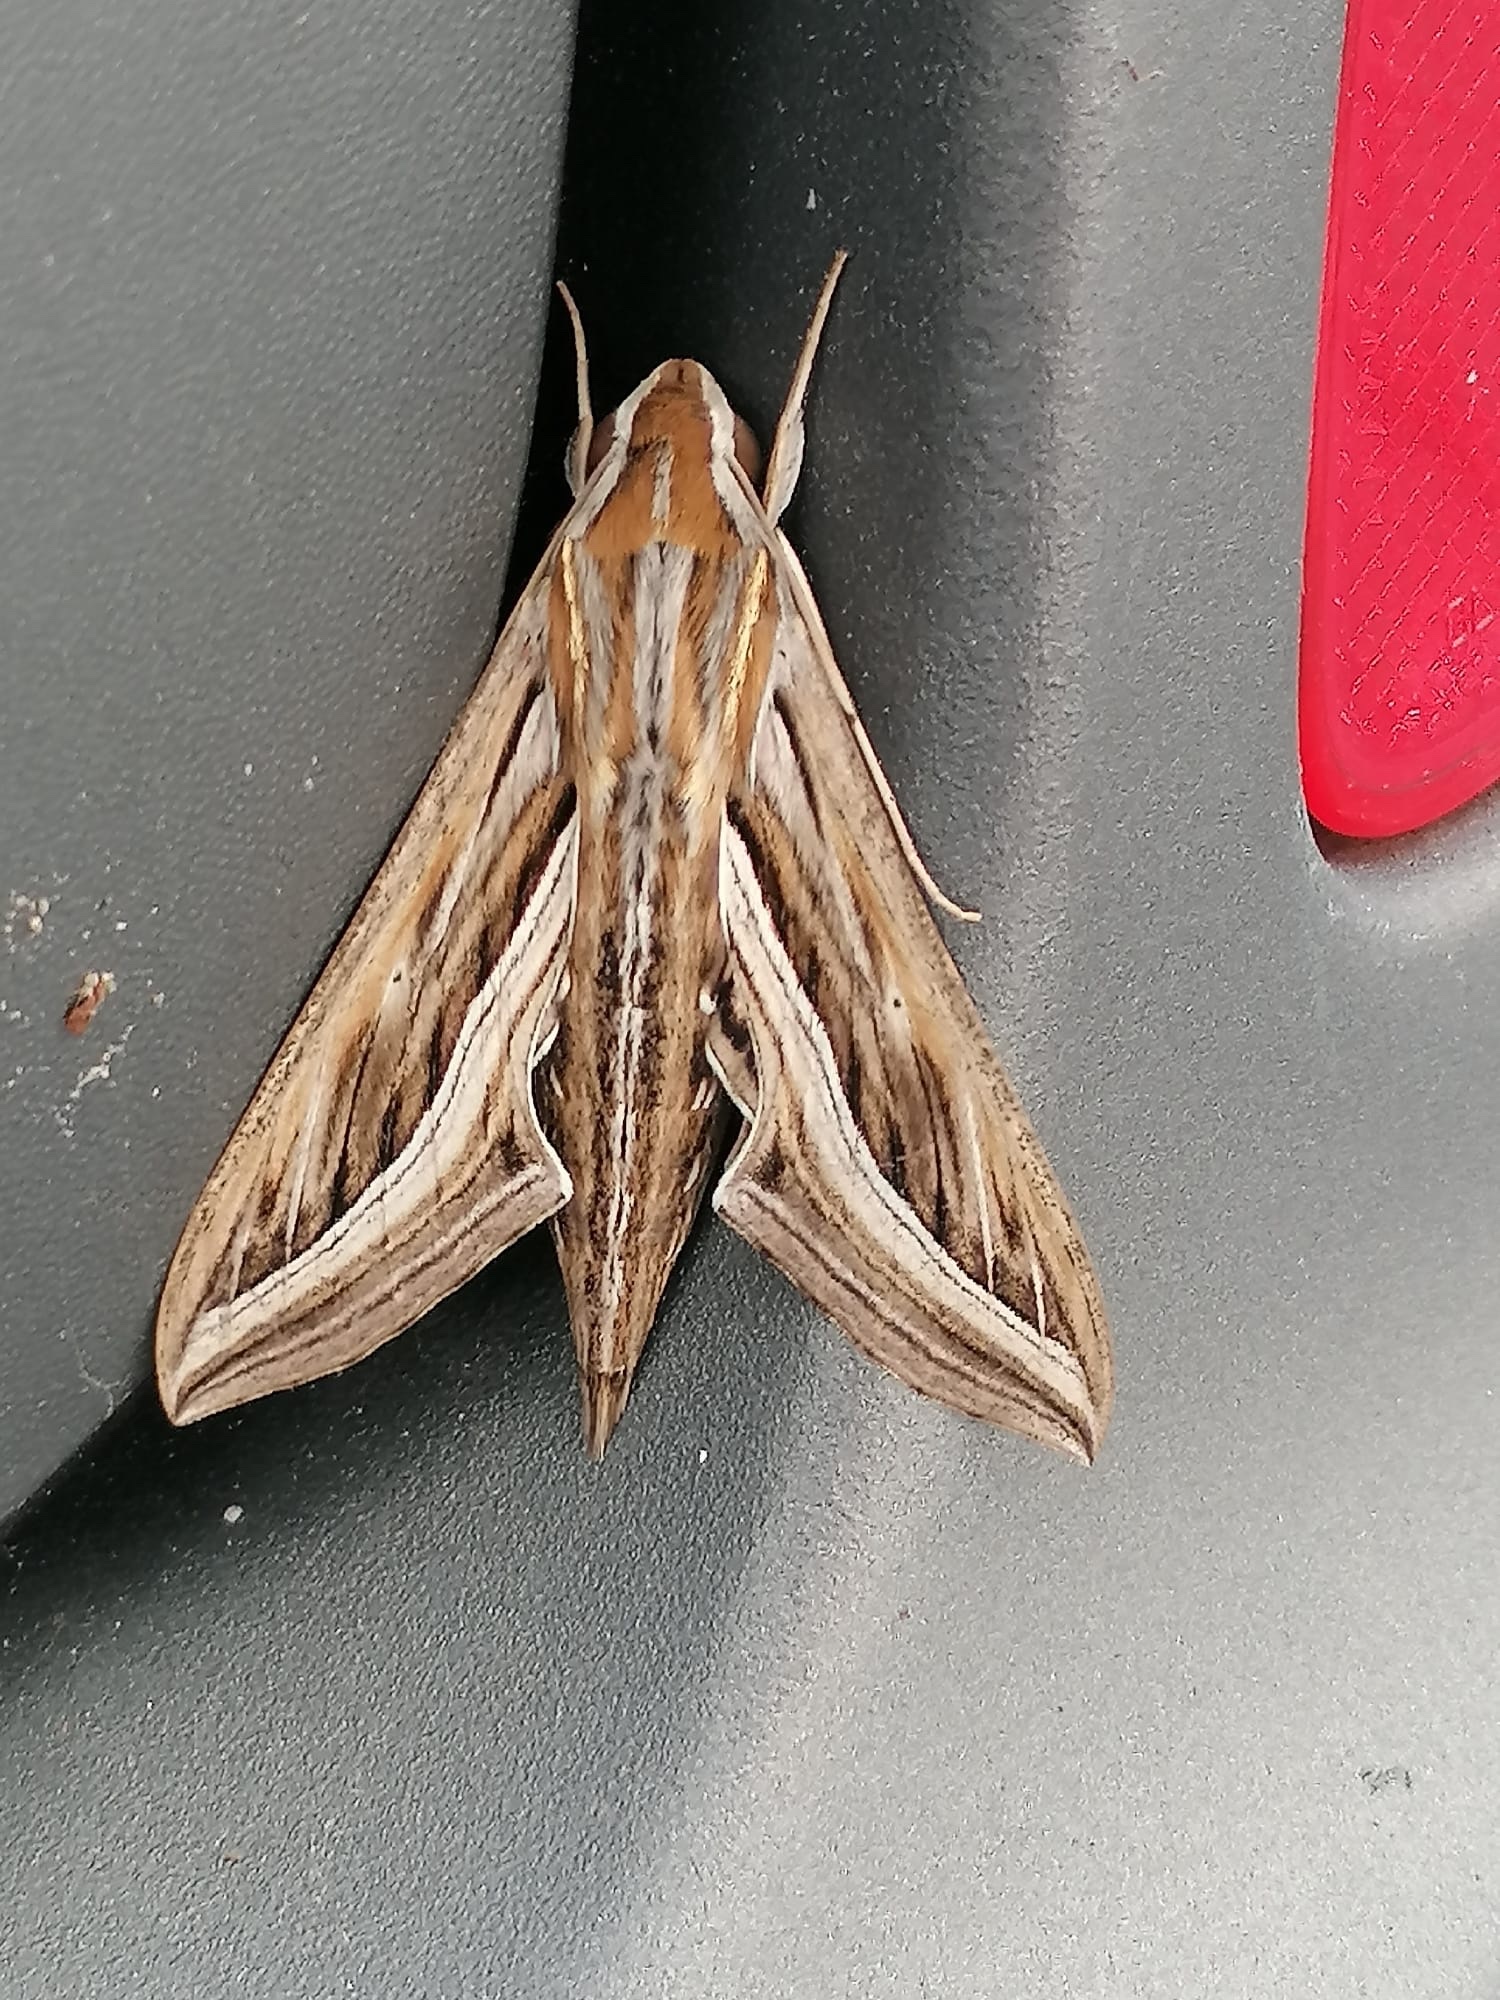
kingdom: Animalia
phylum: Arthropoda
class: Insecta
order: Lepidoptera
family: Sphingidae
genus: Hippotion
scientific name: Hippotion celerio
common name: Silver-striped hawk-moth
